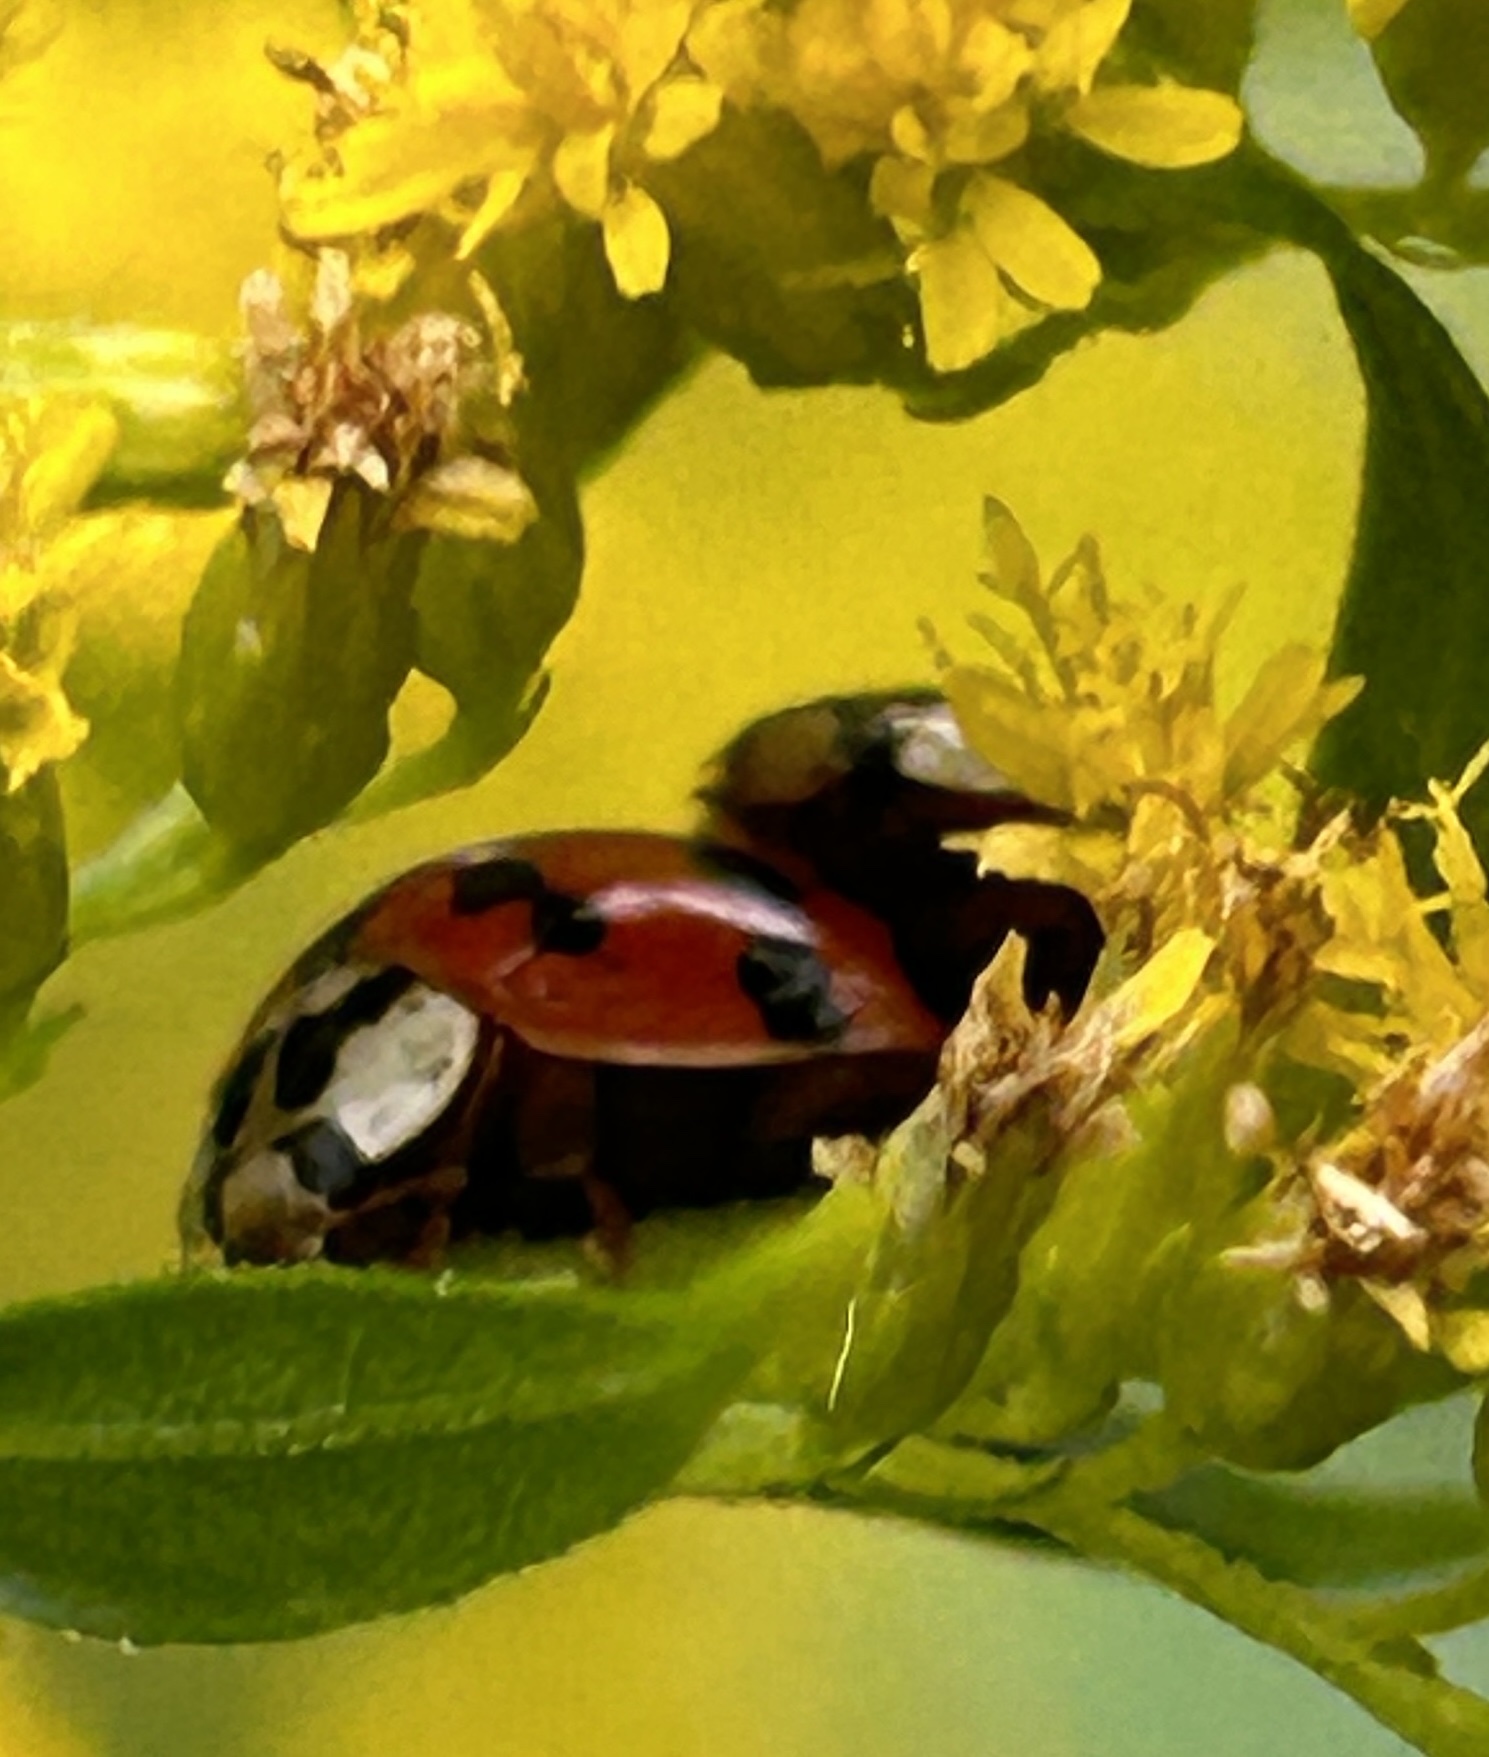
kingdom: Animalia
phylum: Arthropoda
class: Insecta
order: Coleoptera
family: Coccinellidae
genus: Harmonia
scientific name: Harmonia axyridis
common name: Harlequin ladybird
